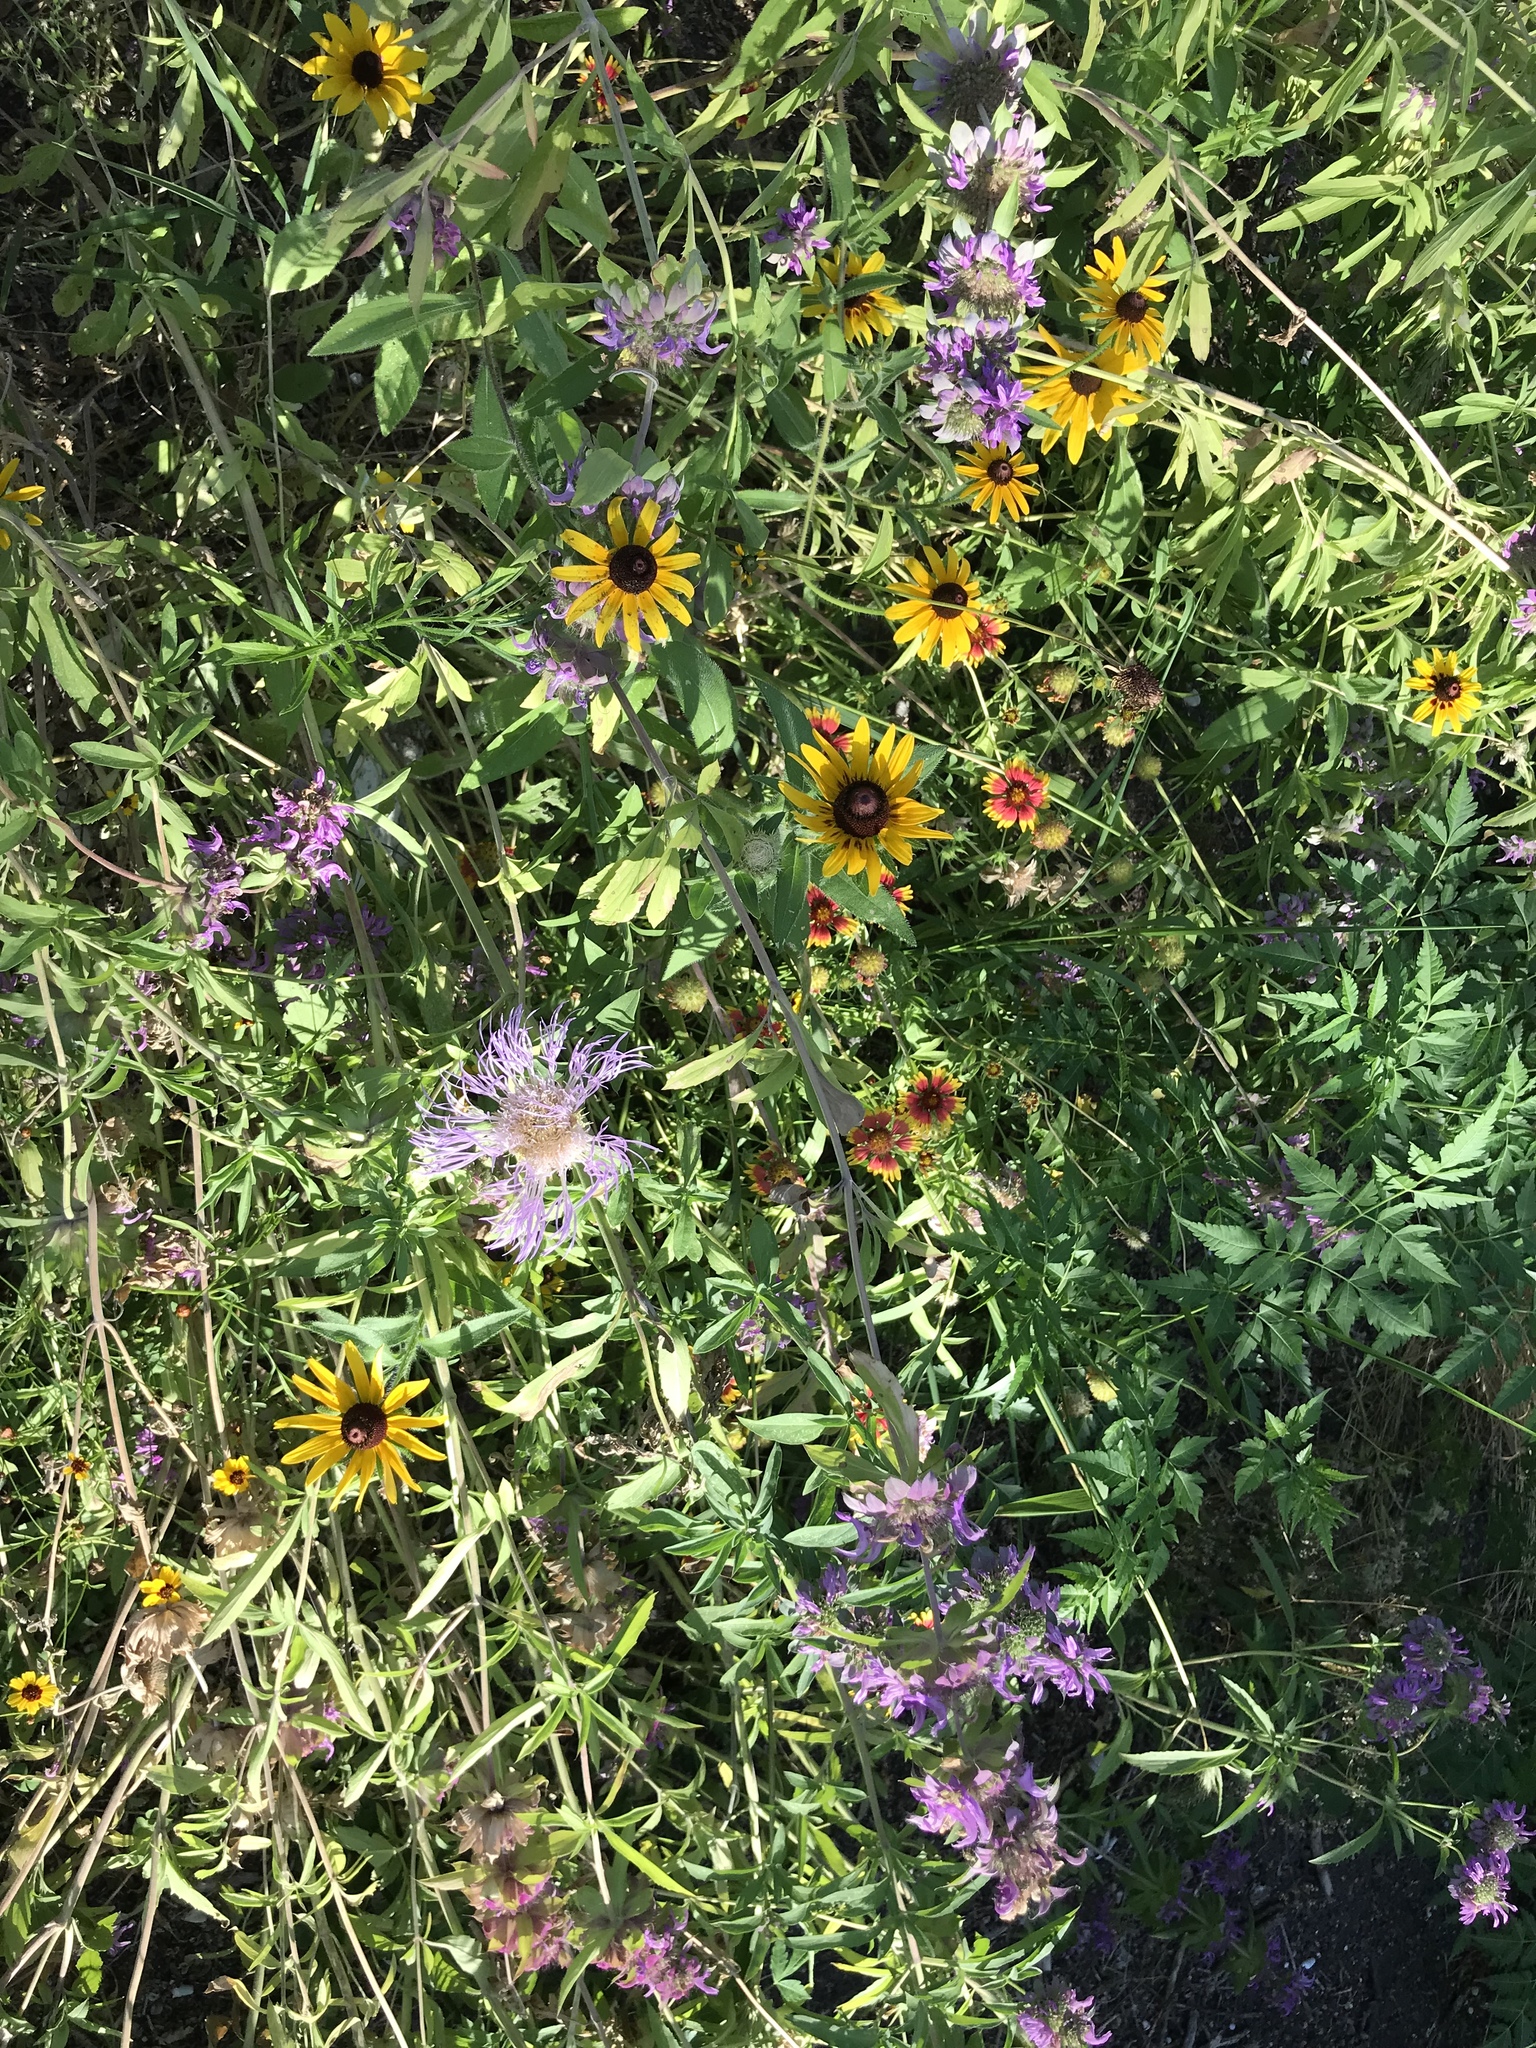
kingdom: Plantae
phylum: Tracheophyta
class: Magnoliopsida
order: Asterales
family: Asteraceae
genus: Plectocephalus
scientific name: Plectocephalus americanus
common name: American basket-flower
